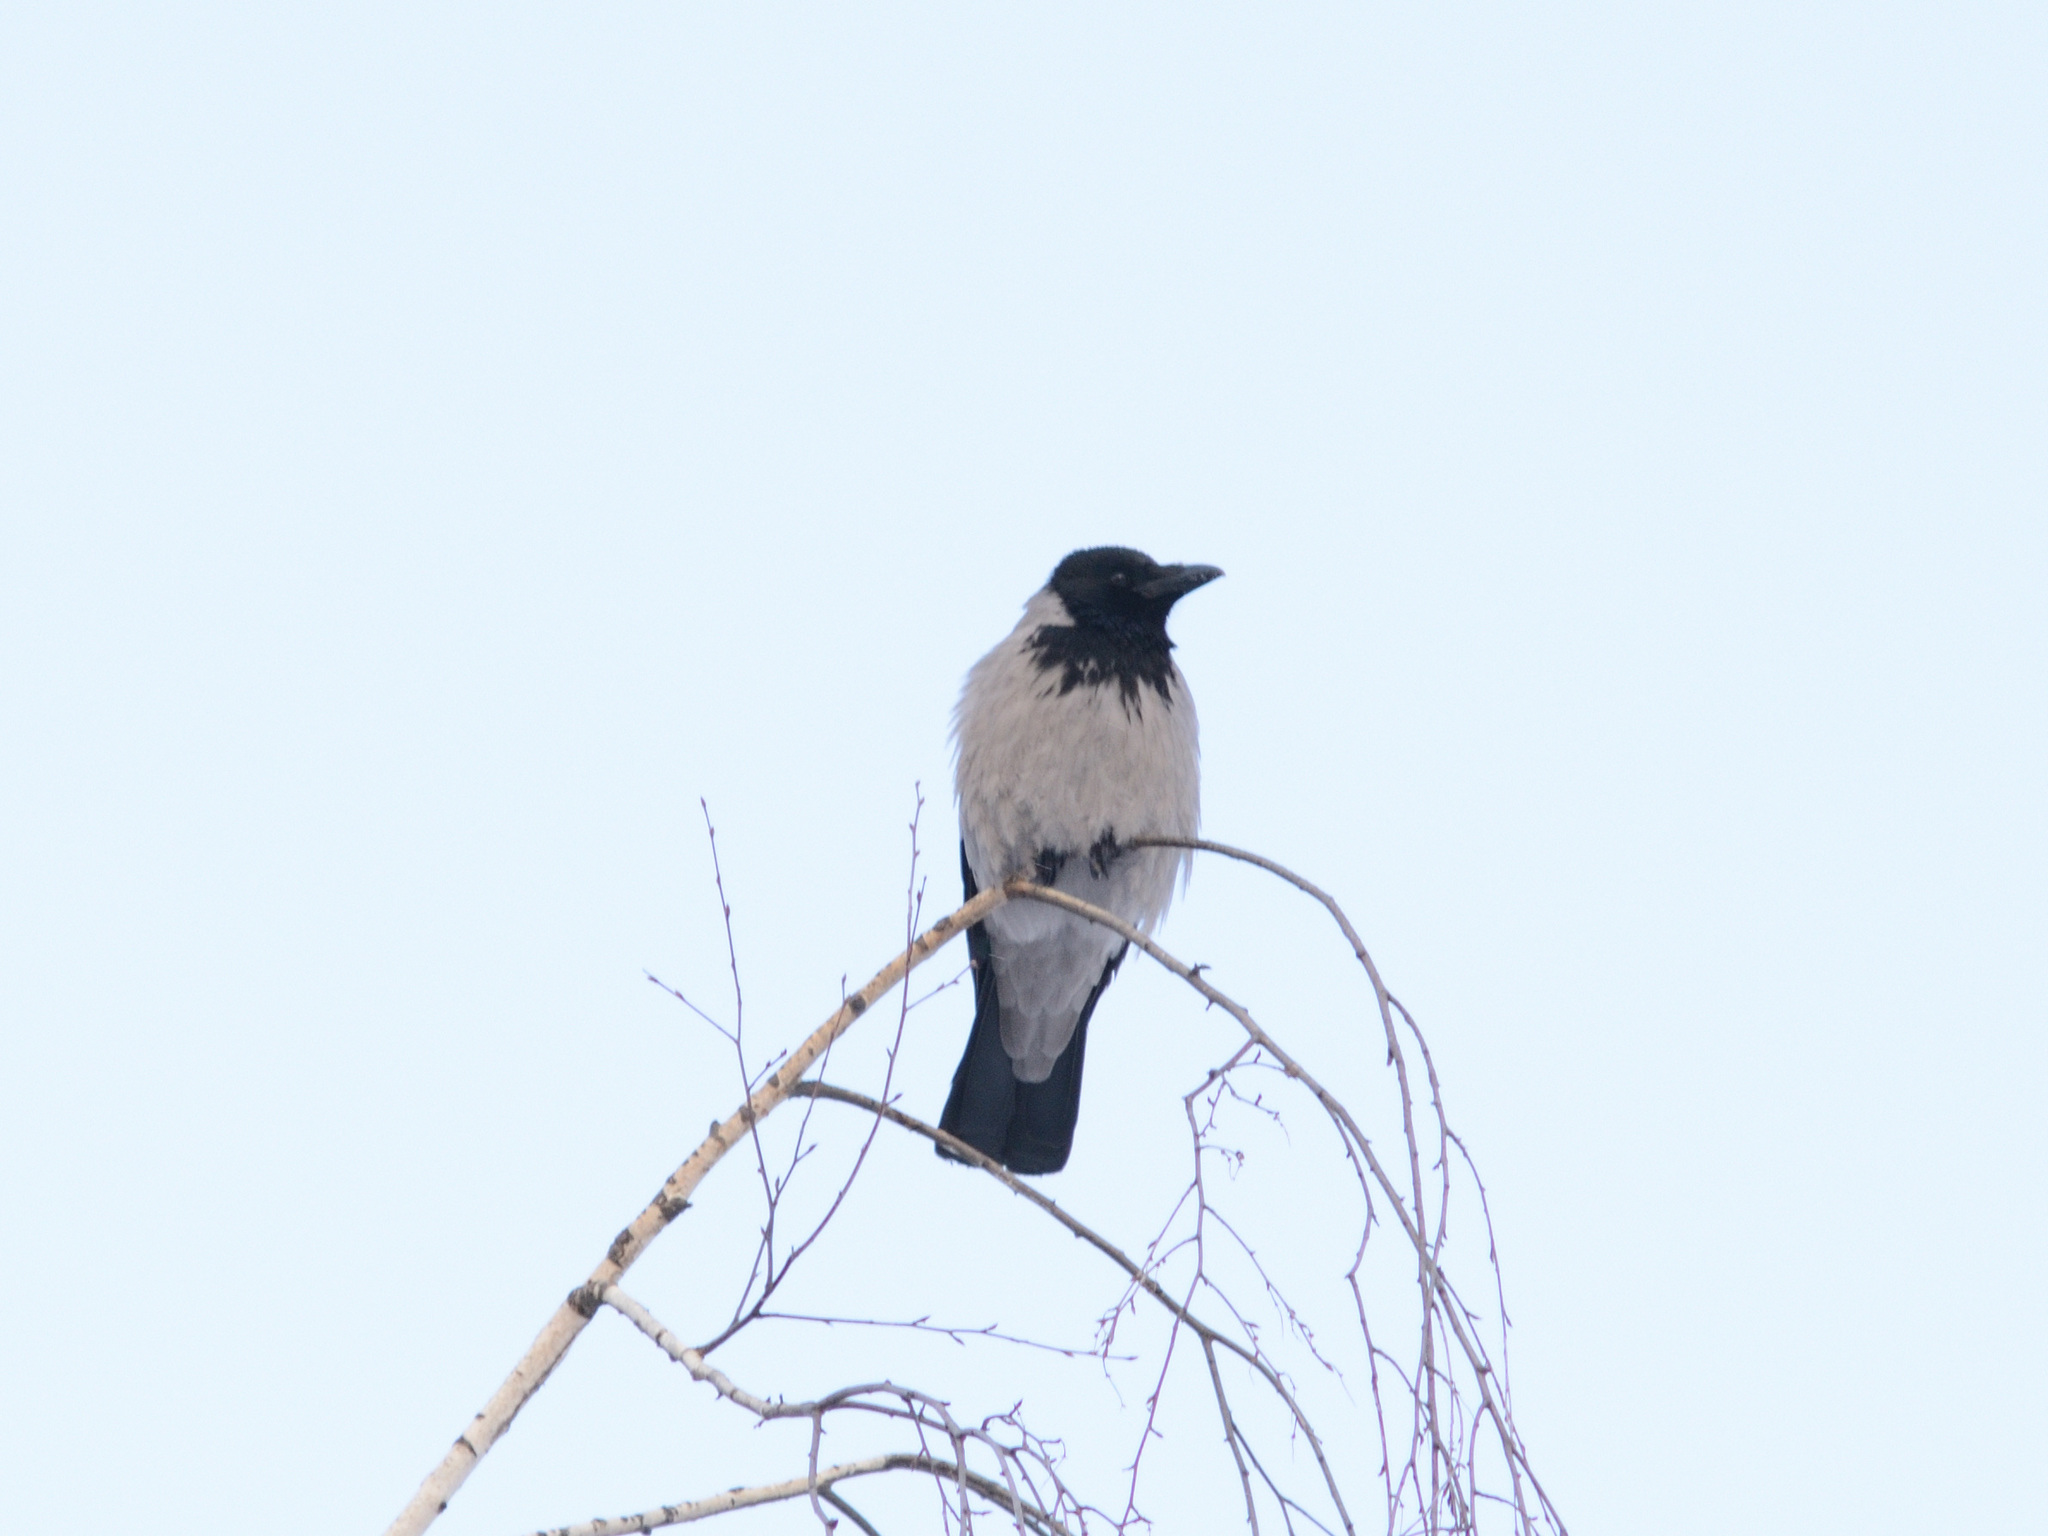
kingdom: Animalia
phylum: Chordata
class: Aves
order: Passeriformes
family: Corvidae
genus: Corvus
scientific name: Corvus cornix
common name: Hooded crow
